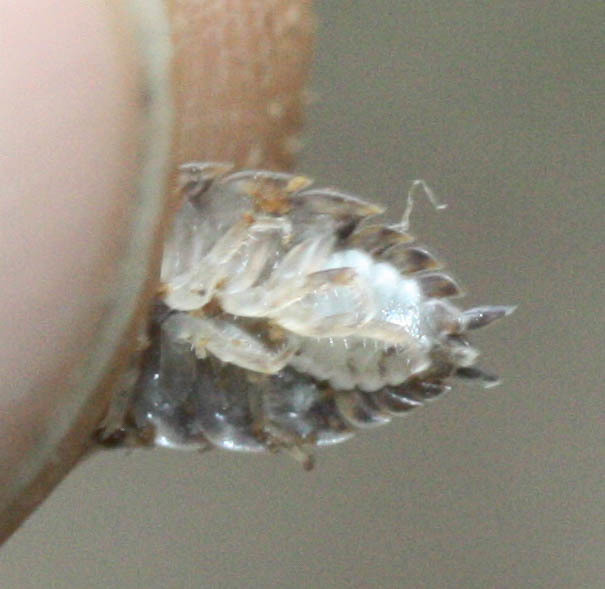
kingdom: Animalia
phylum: Arthropoda
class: Malacostraca
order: Isopoda
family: Trachelipodidae
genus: Trachelipus
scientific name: Trachelipus rathkii
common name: Isopod
